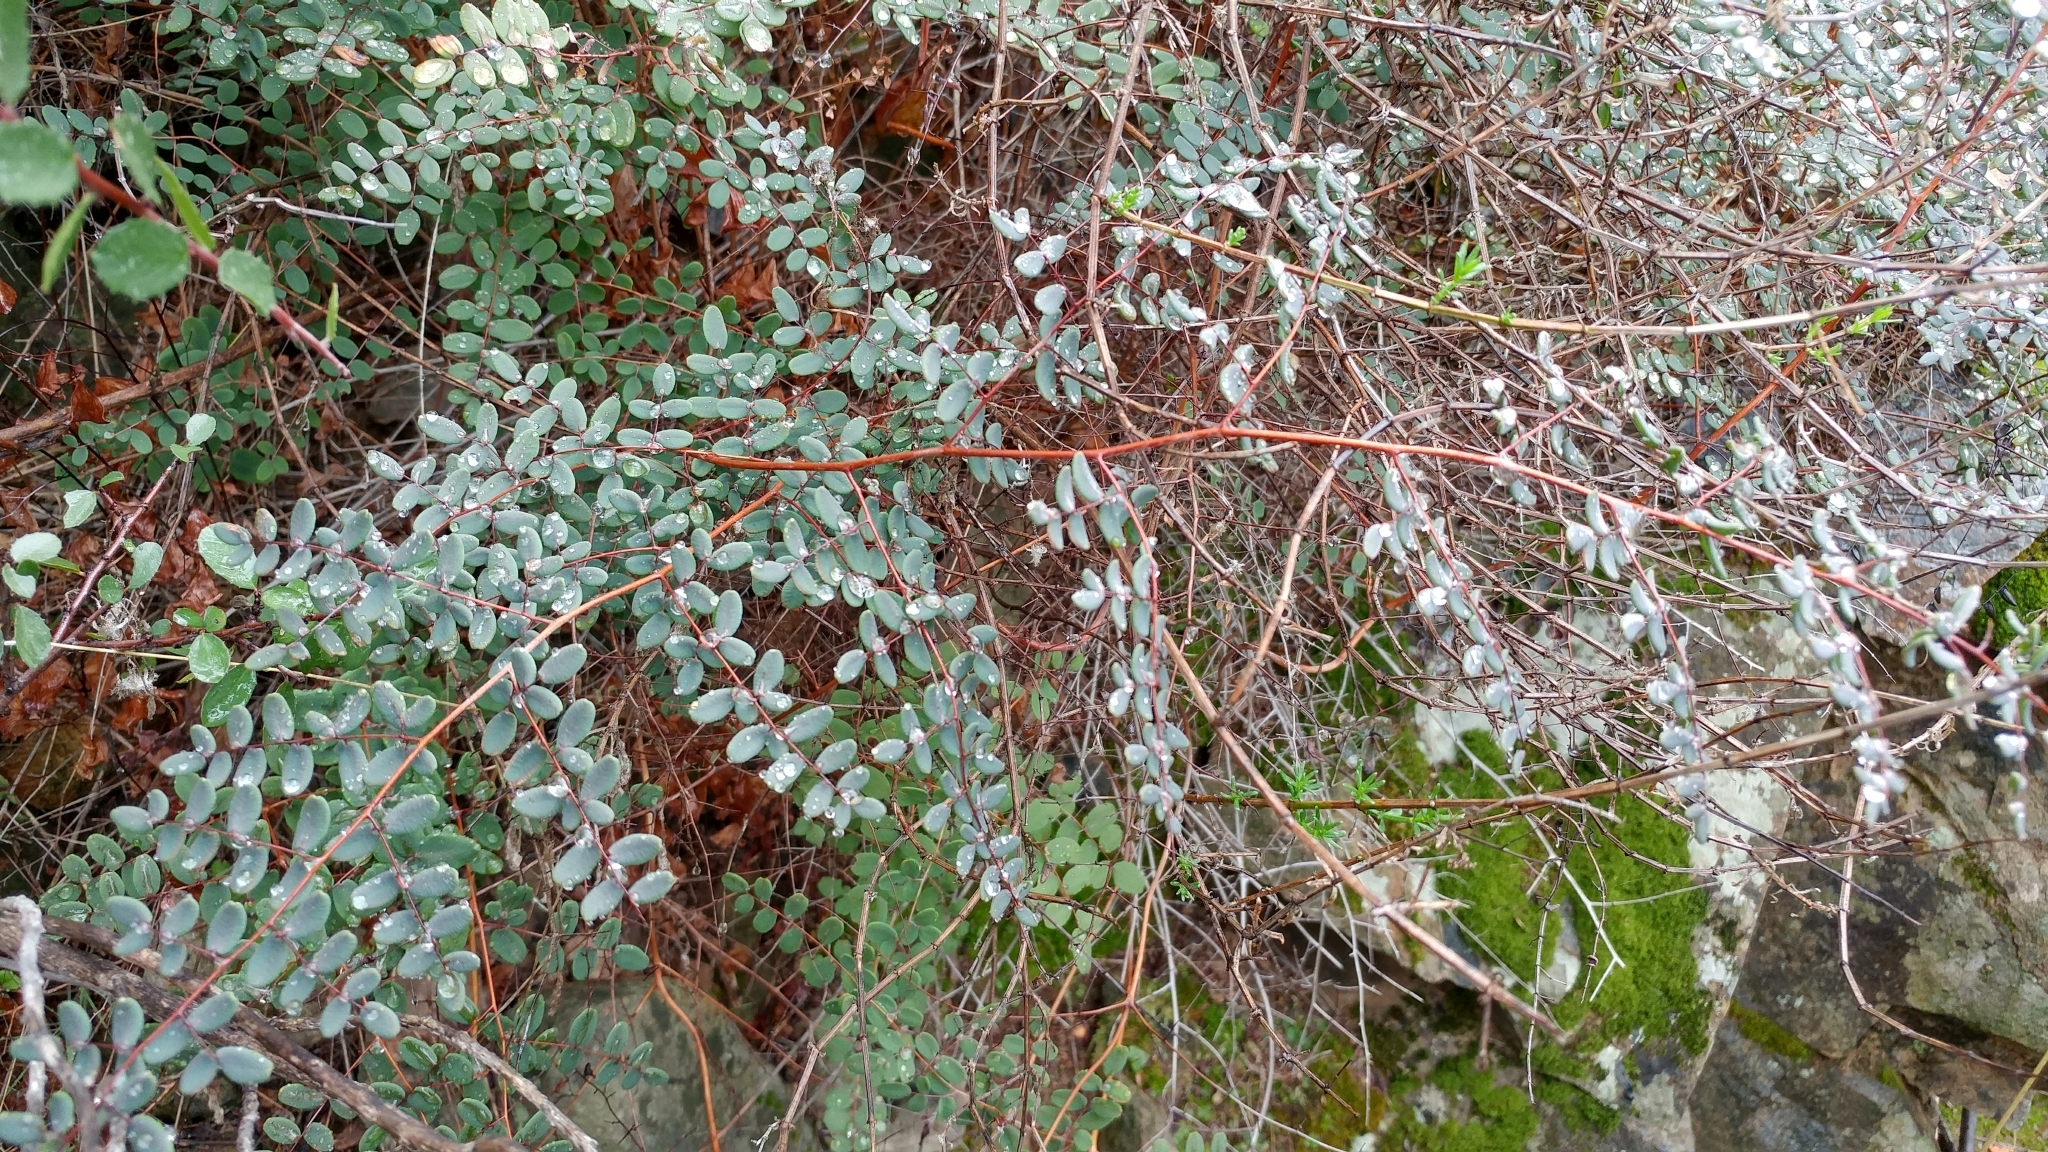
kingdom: Plantae
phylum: Tracheophyta
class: Polypodiopsida
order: Polypodiales
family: Pteridaceae
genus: Pellaea
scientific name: Pellaea andromedifolia
